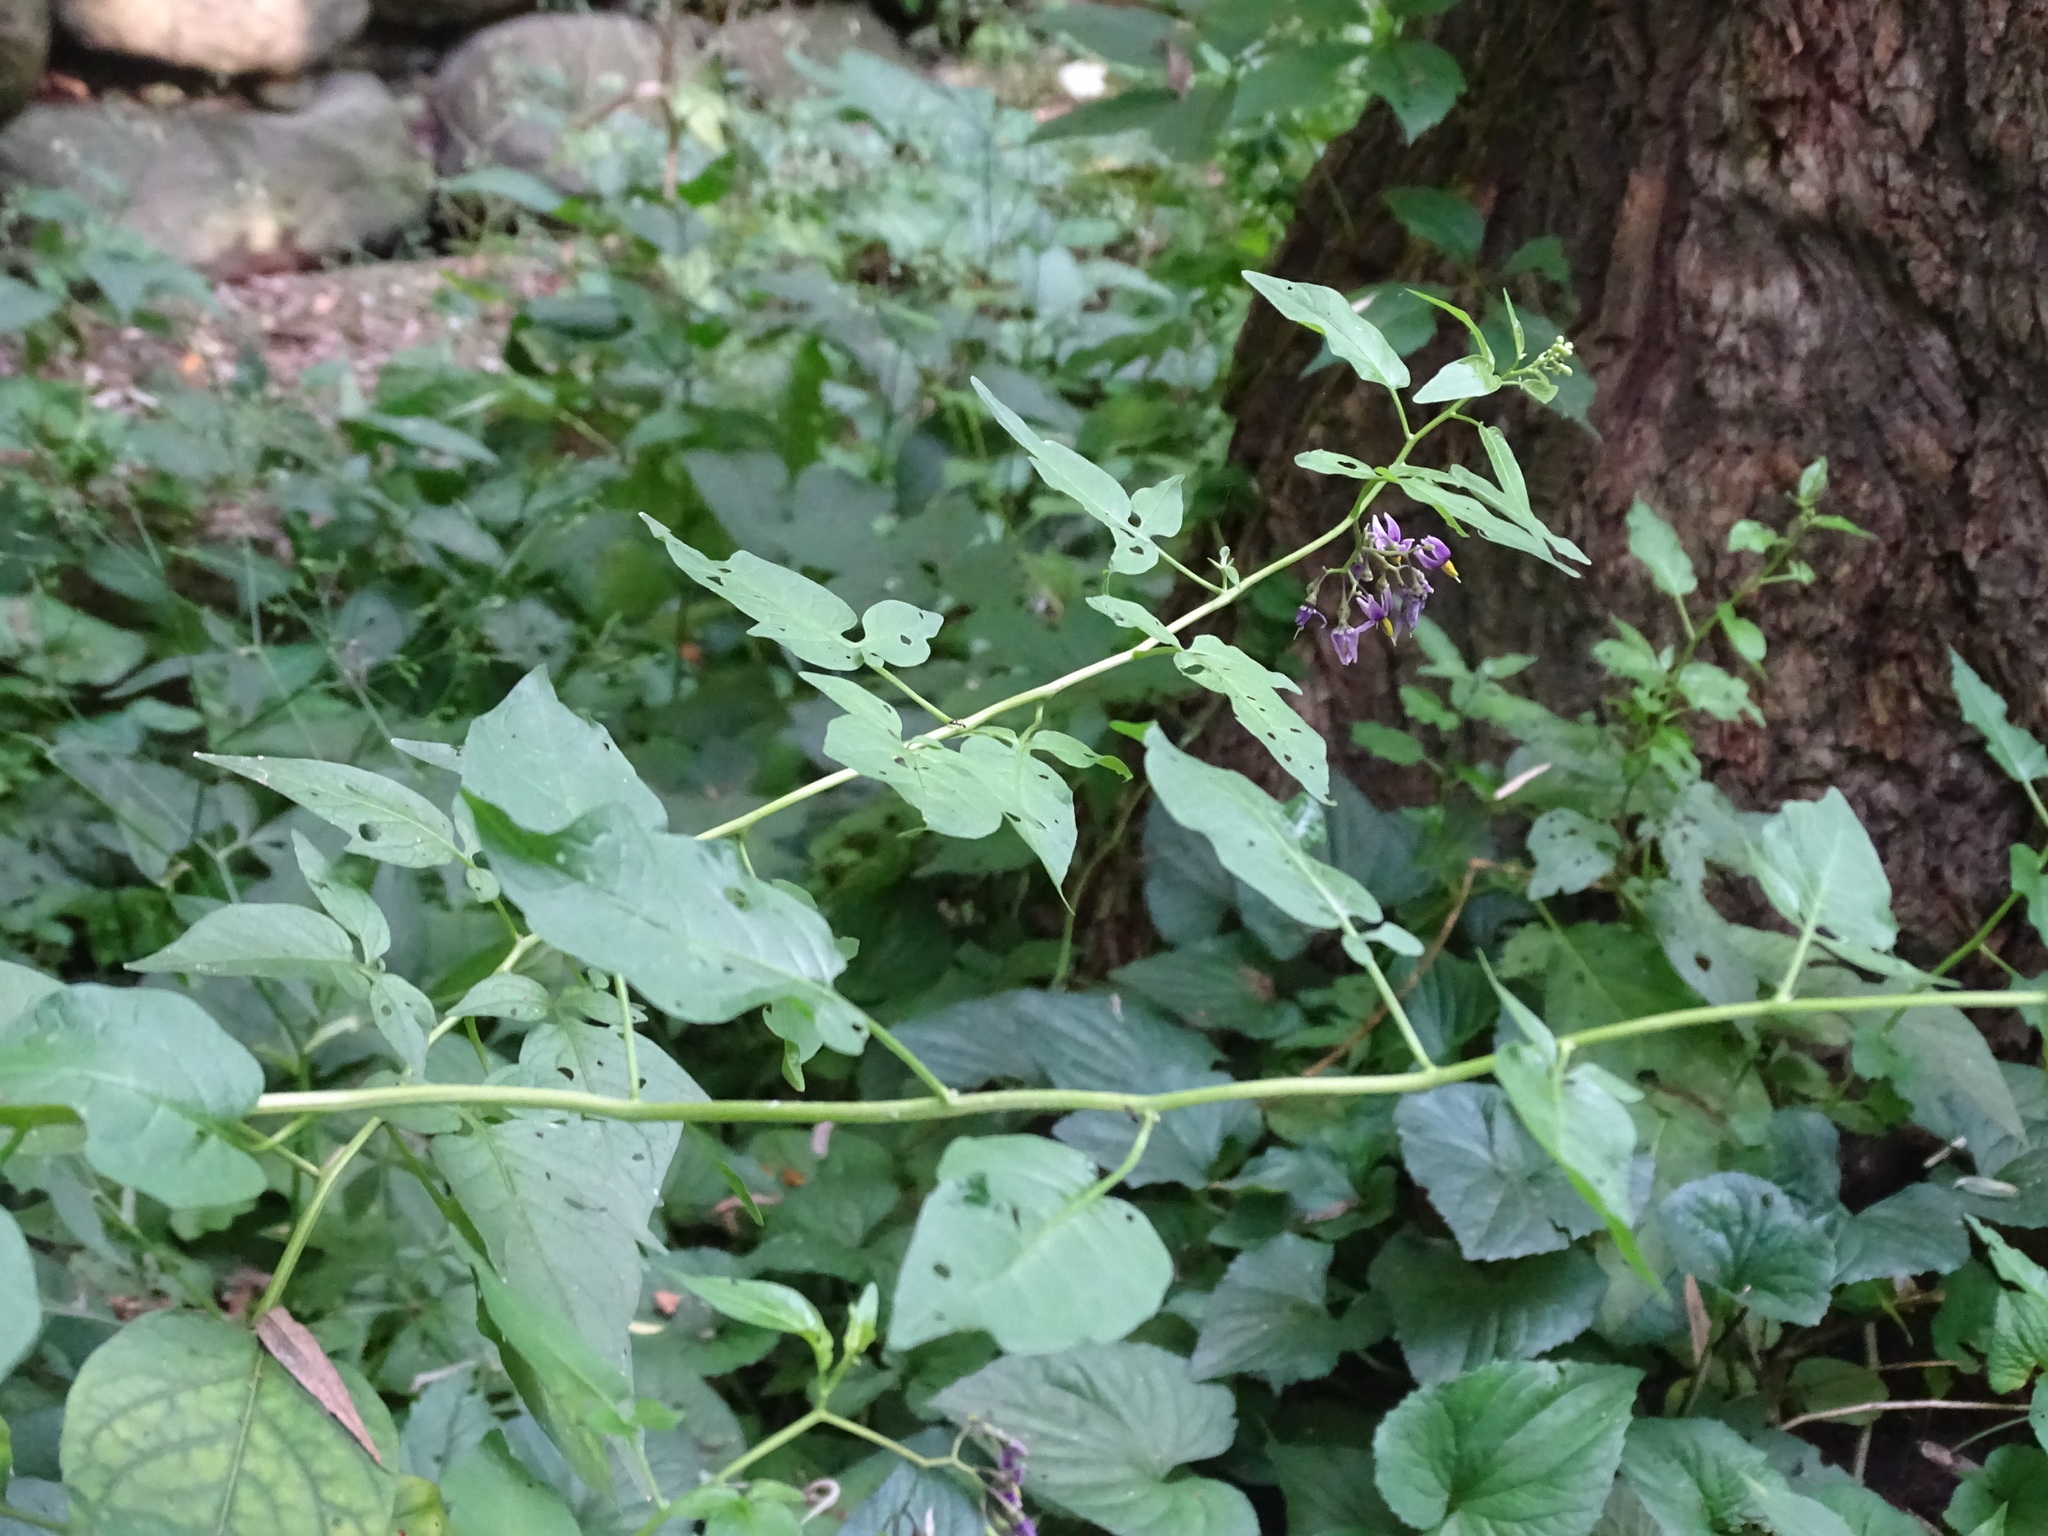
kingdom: Plantae
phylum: Tracheophyta
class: Magnoliopsida
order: Solanales
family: Solanaceae
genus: Solanum
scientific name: Solanum dulcamara
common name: Climbing nightshade
